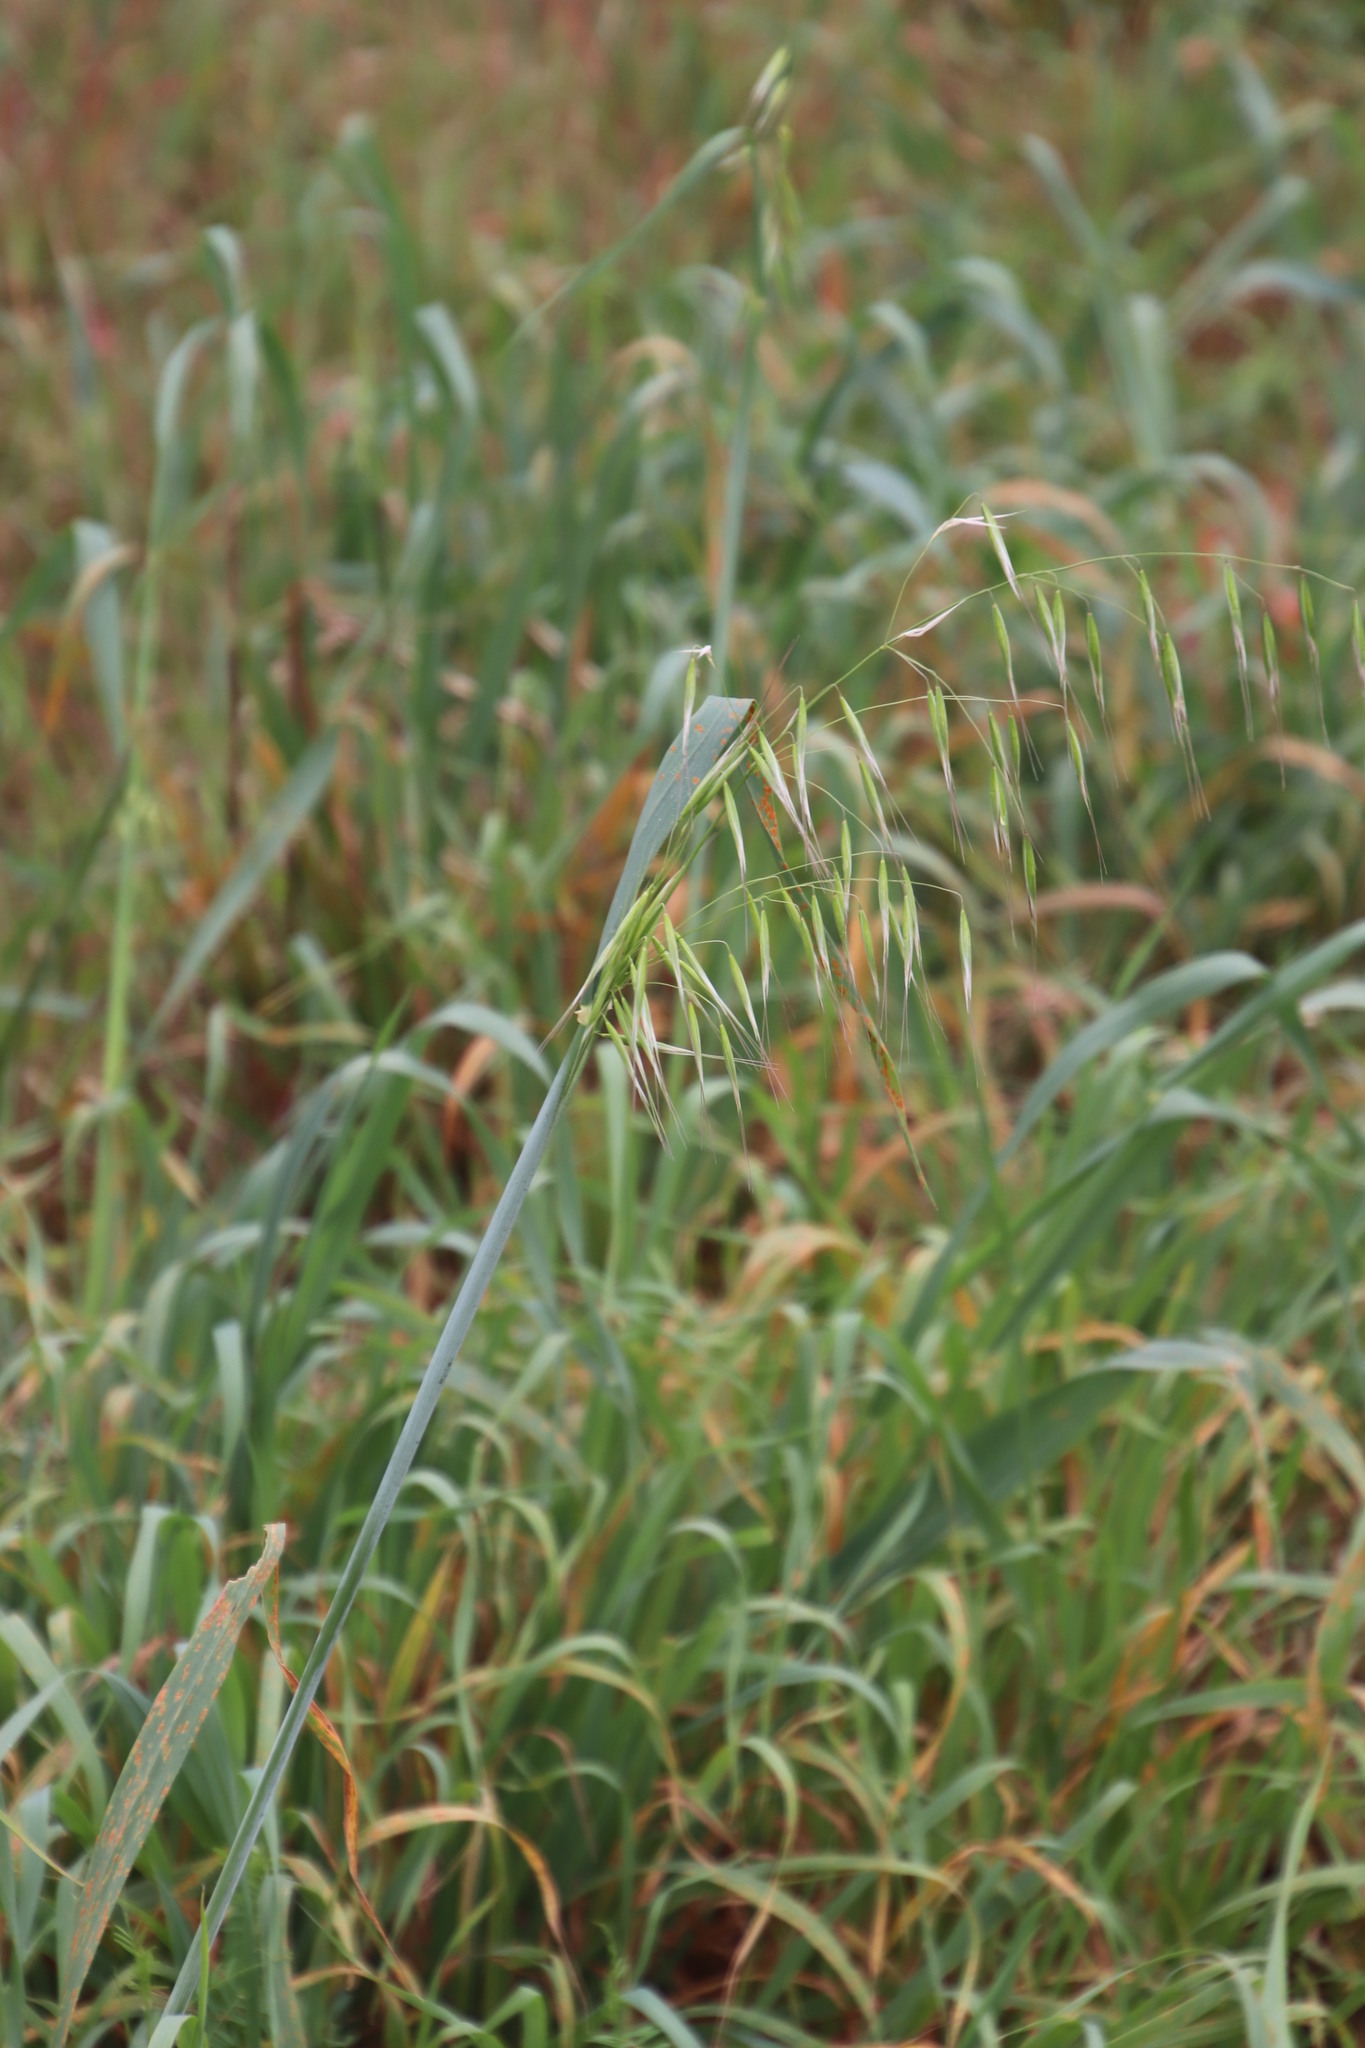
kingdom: Plantae
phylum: Tracheophyta
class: Liliopsida
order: Poales
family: Poaceae
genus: Avena
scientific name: Avena fatua
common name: Wild oat
